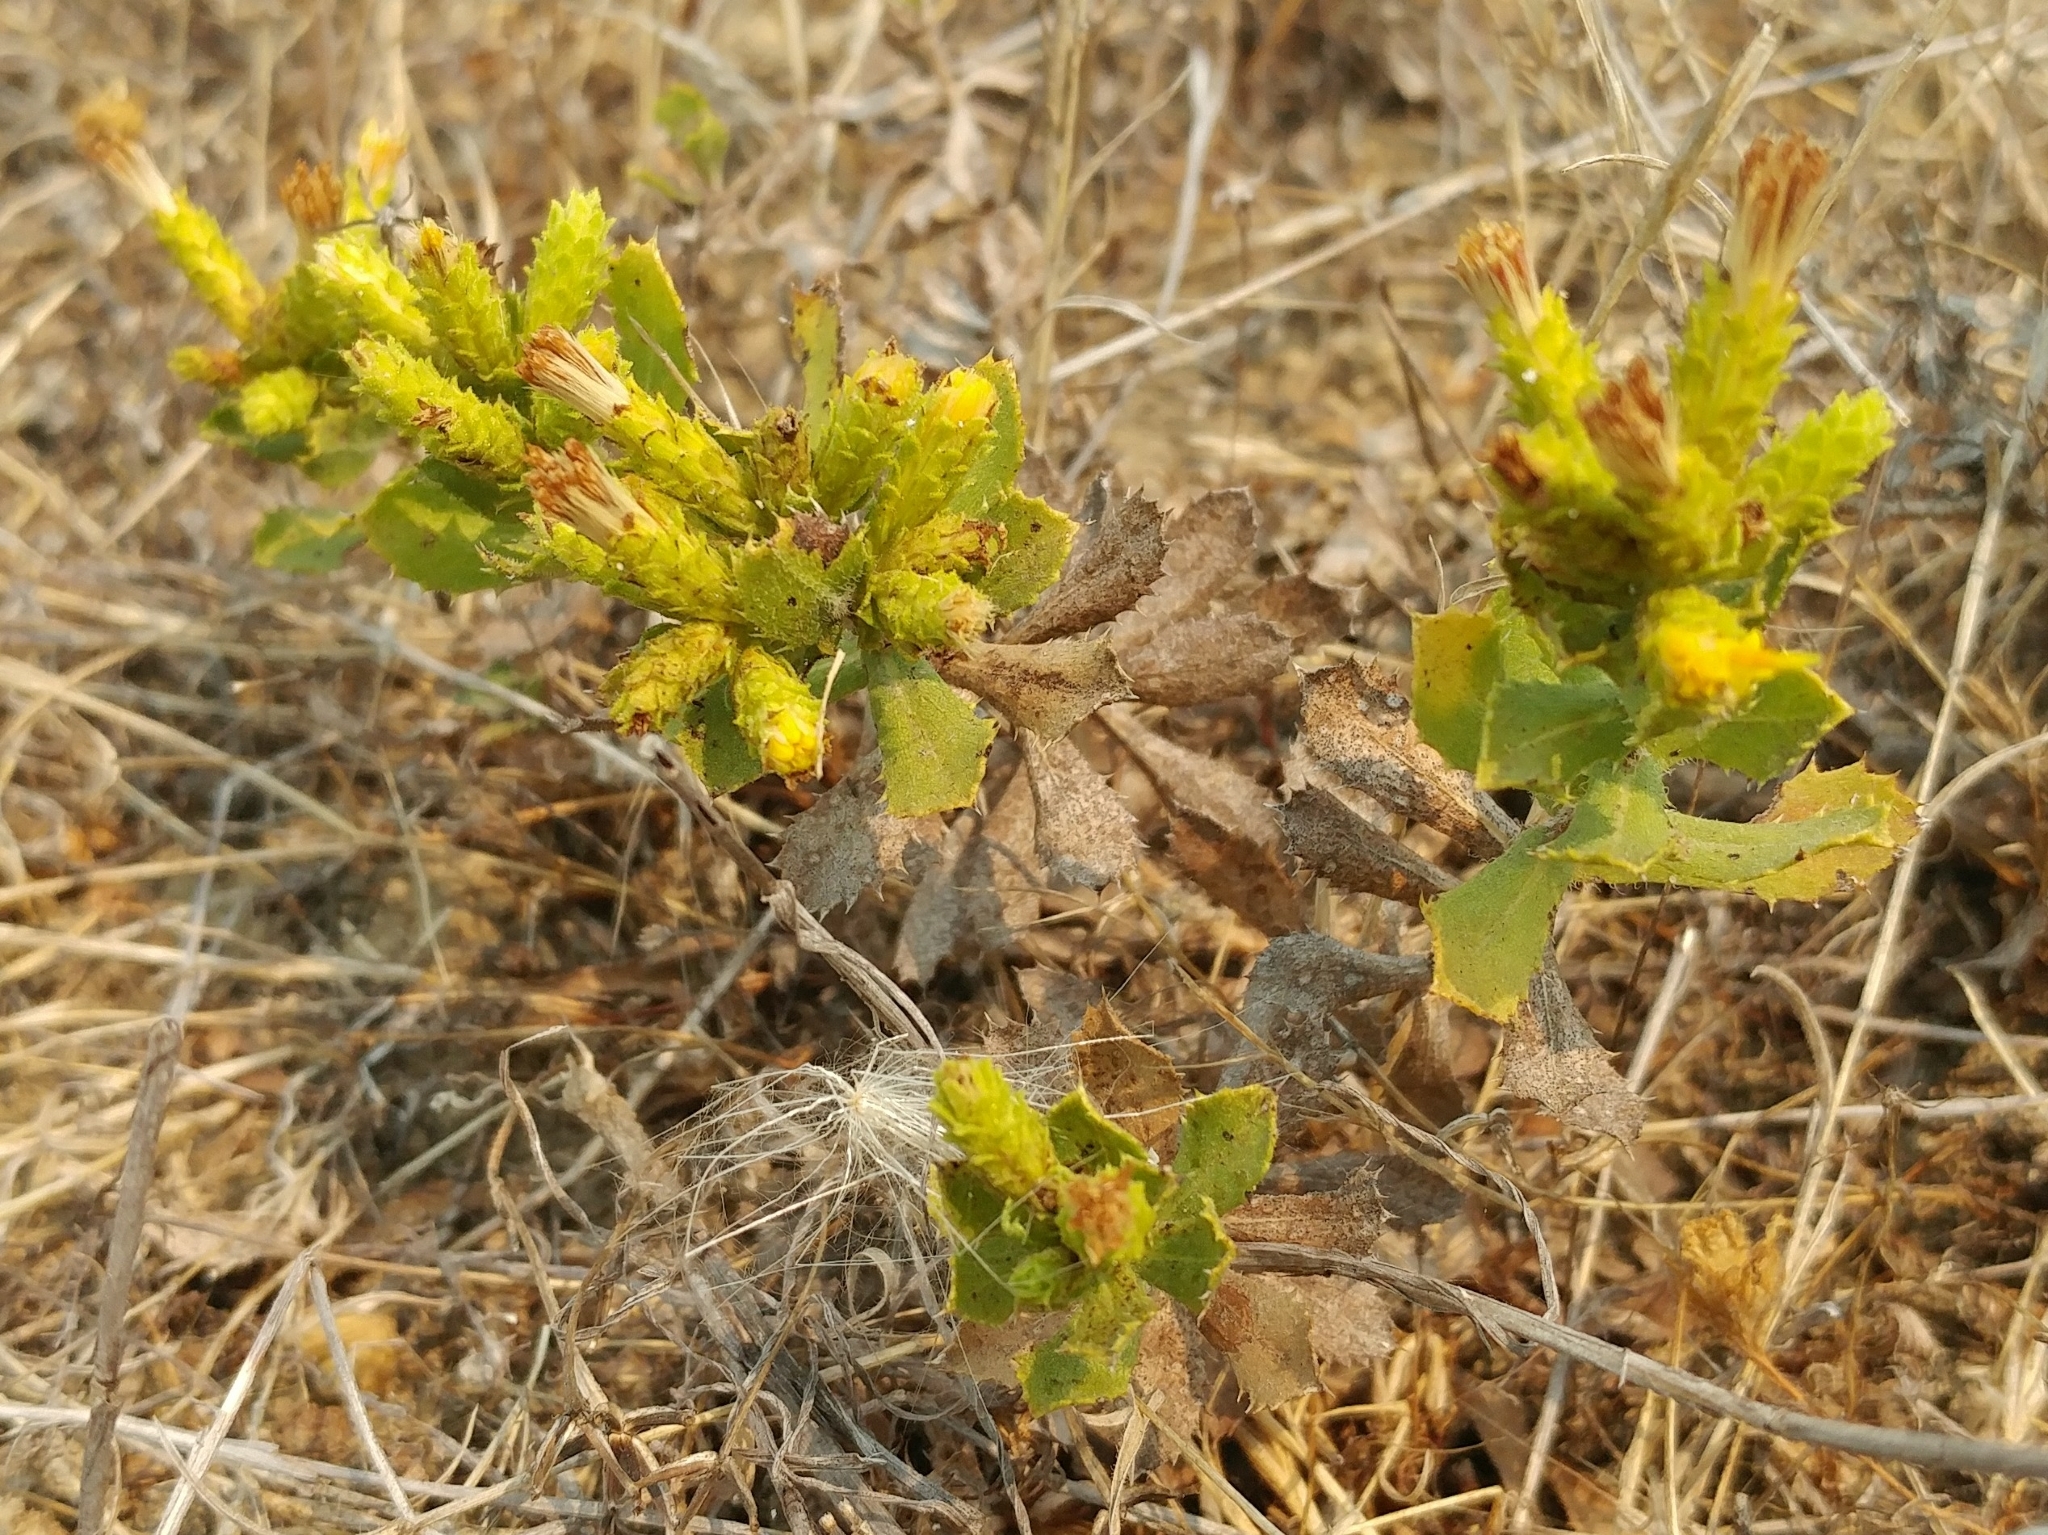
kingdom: Plantae
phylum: Tracheophyta
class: Magnoliopsida
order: Asterales
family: Asteraceae
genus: Hazardia
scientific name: Hazardia squarrosa
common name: Saw-tooth goldenbush
